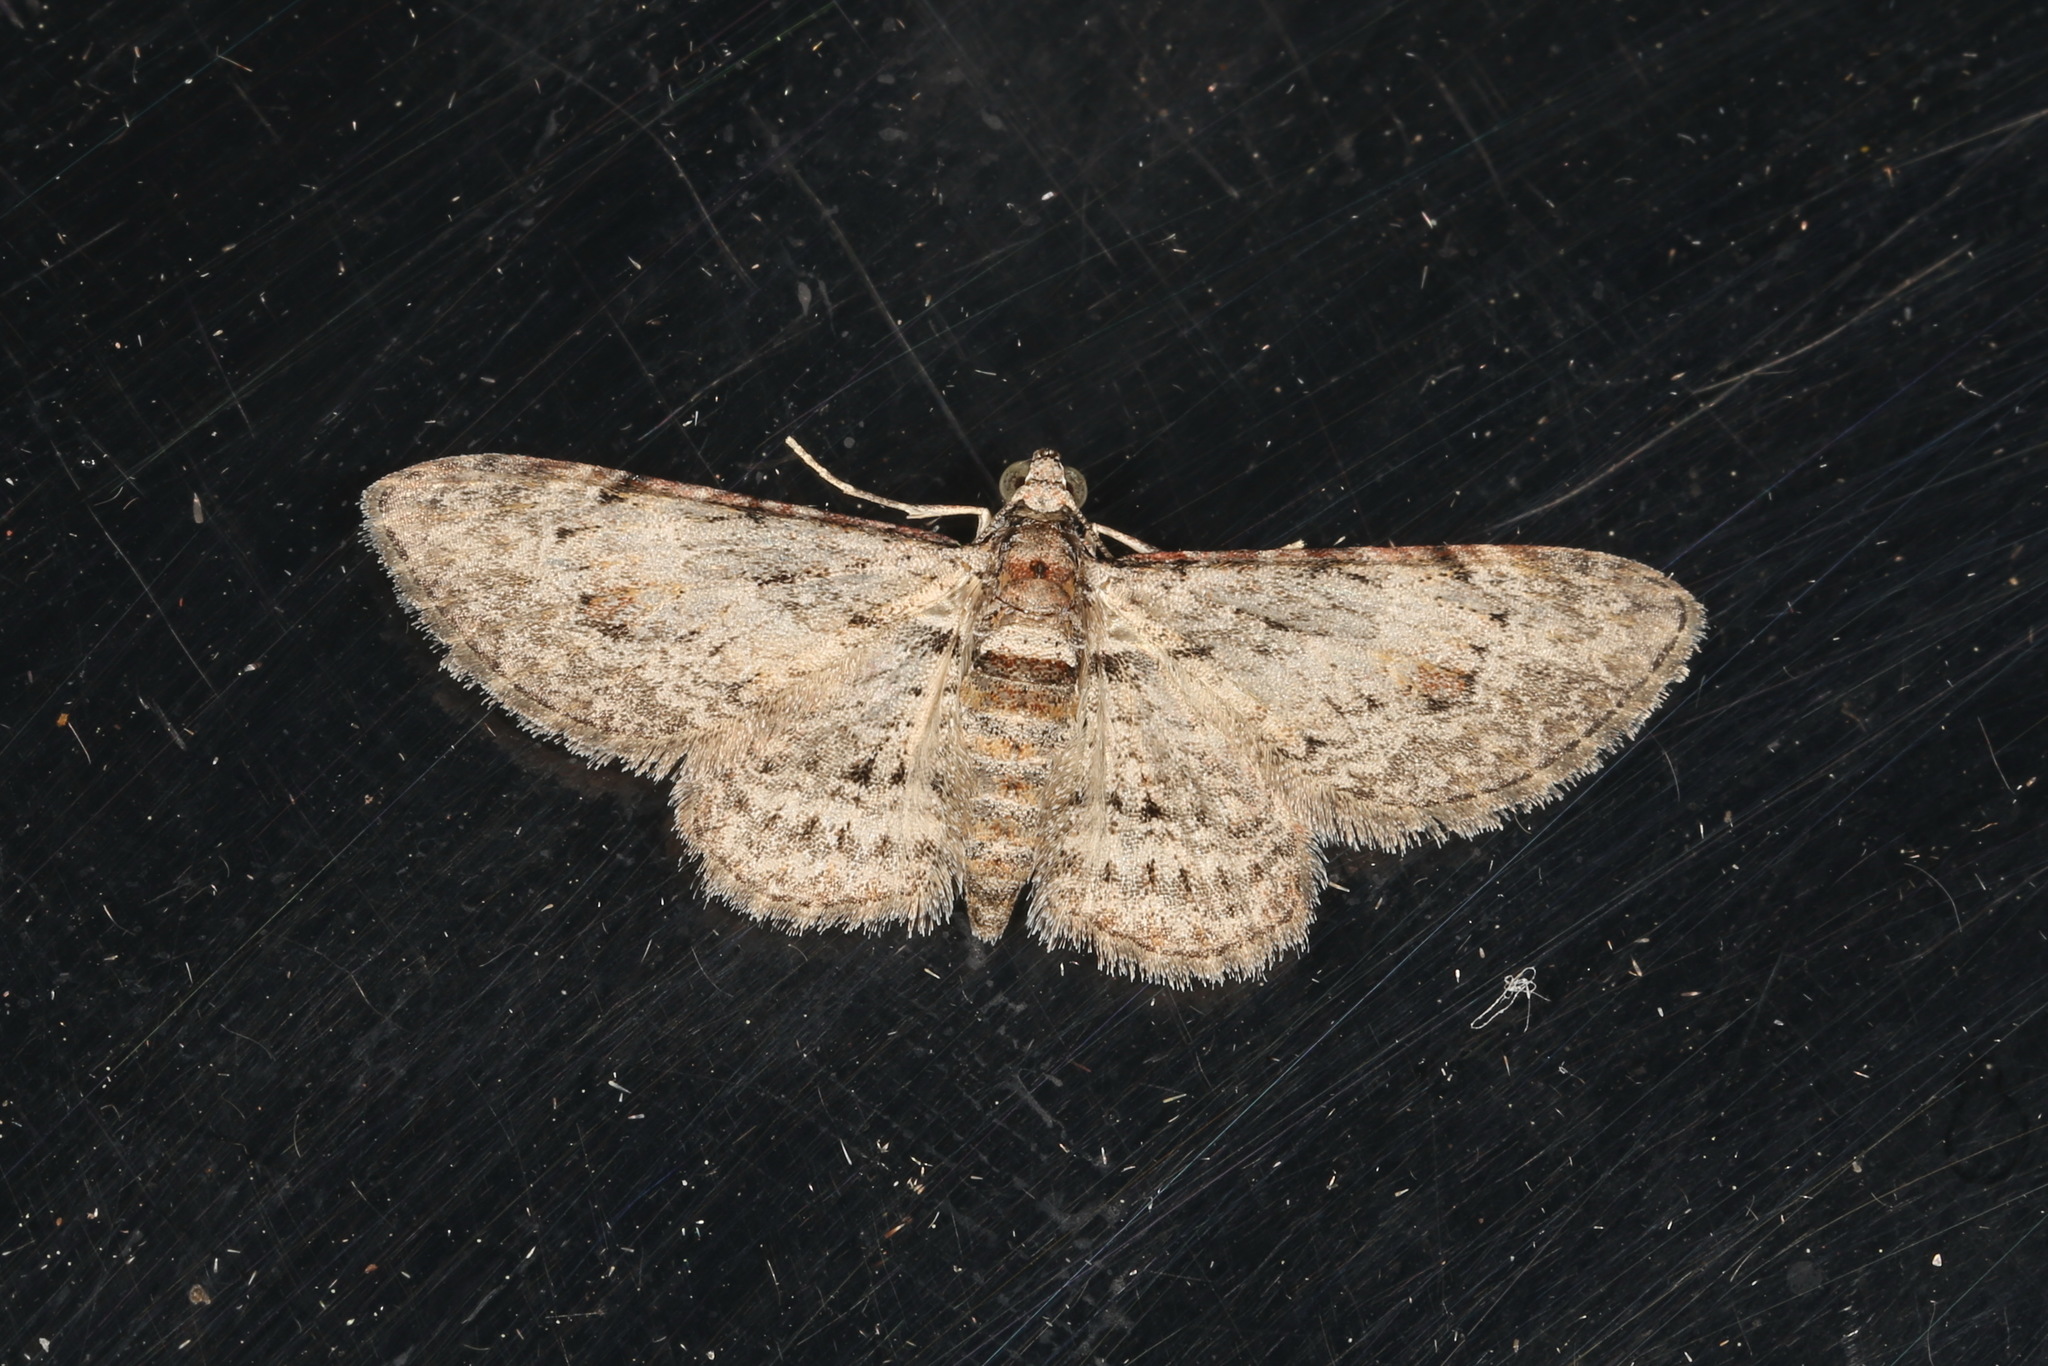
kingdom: Animalia
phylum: Arthropoda
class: Insecta
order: Lepidoptera
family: Geometridae
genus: Chloroclystis
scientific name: Chloroclystis insigillata
